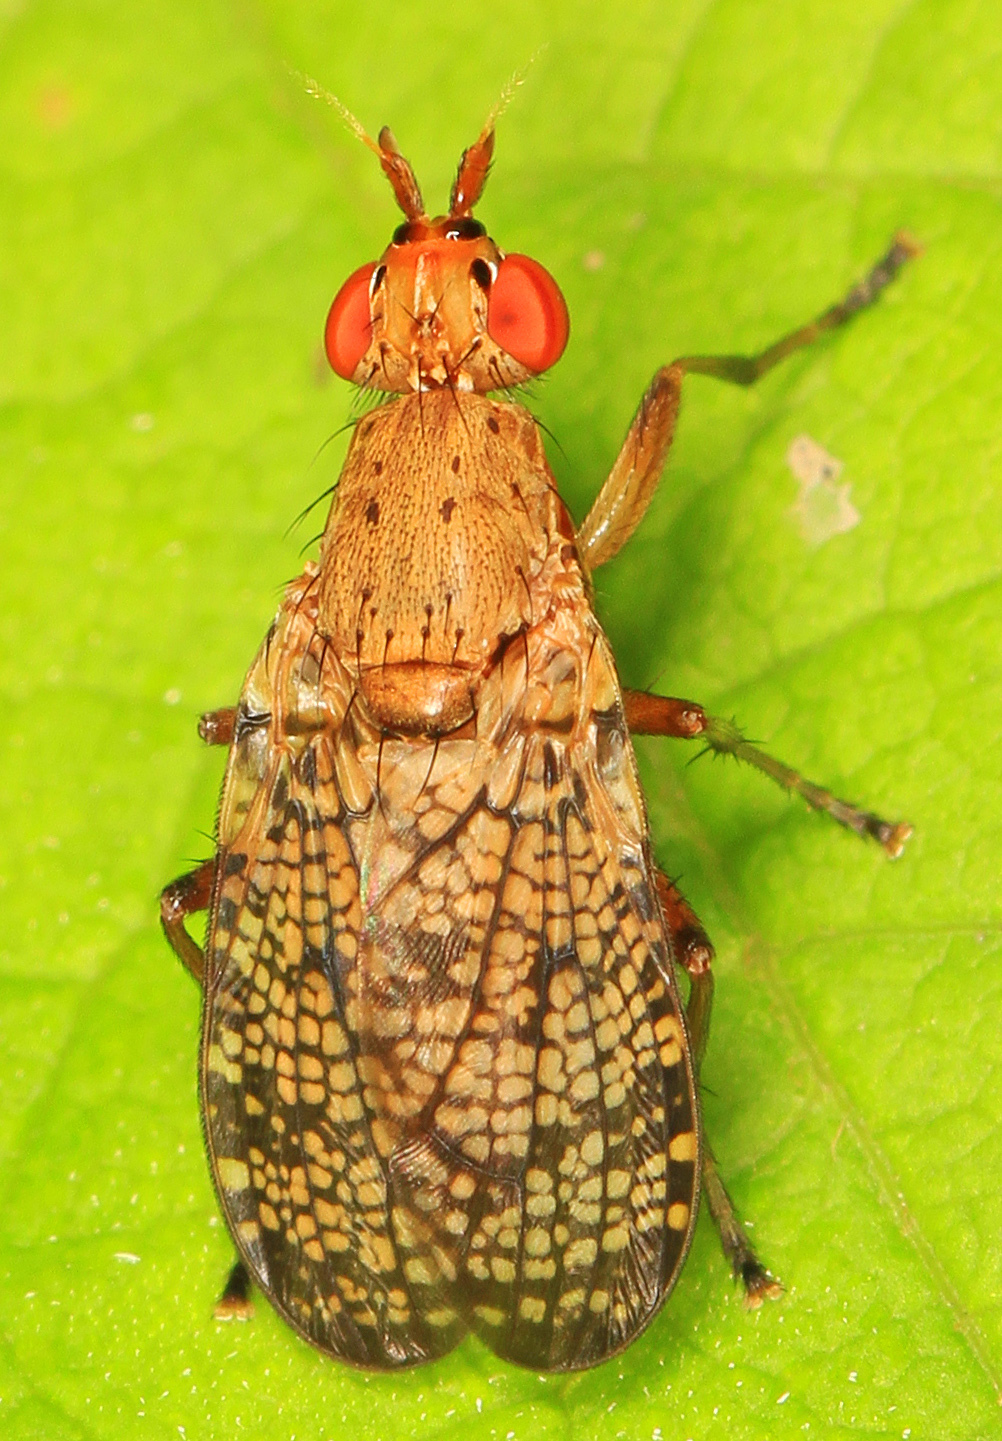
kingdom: Animalia
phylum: Arthropoda
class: Insecta
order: Diptera
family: Sciomyzidae
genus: Euthycera
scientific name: Euthycera flavescens
